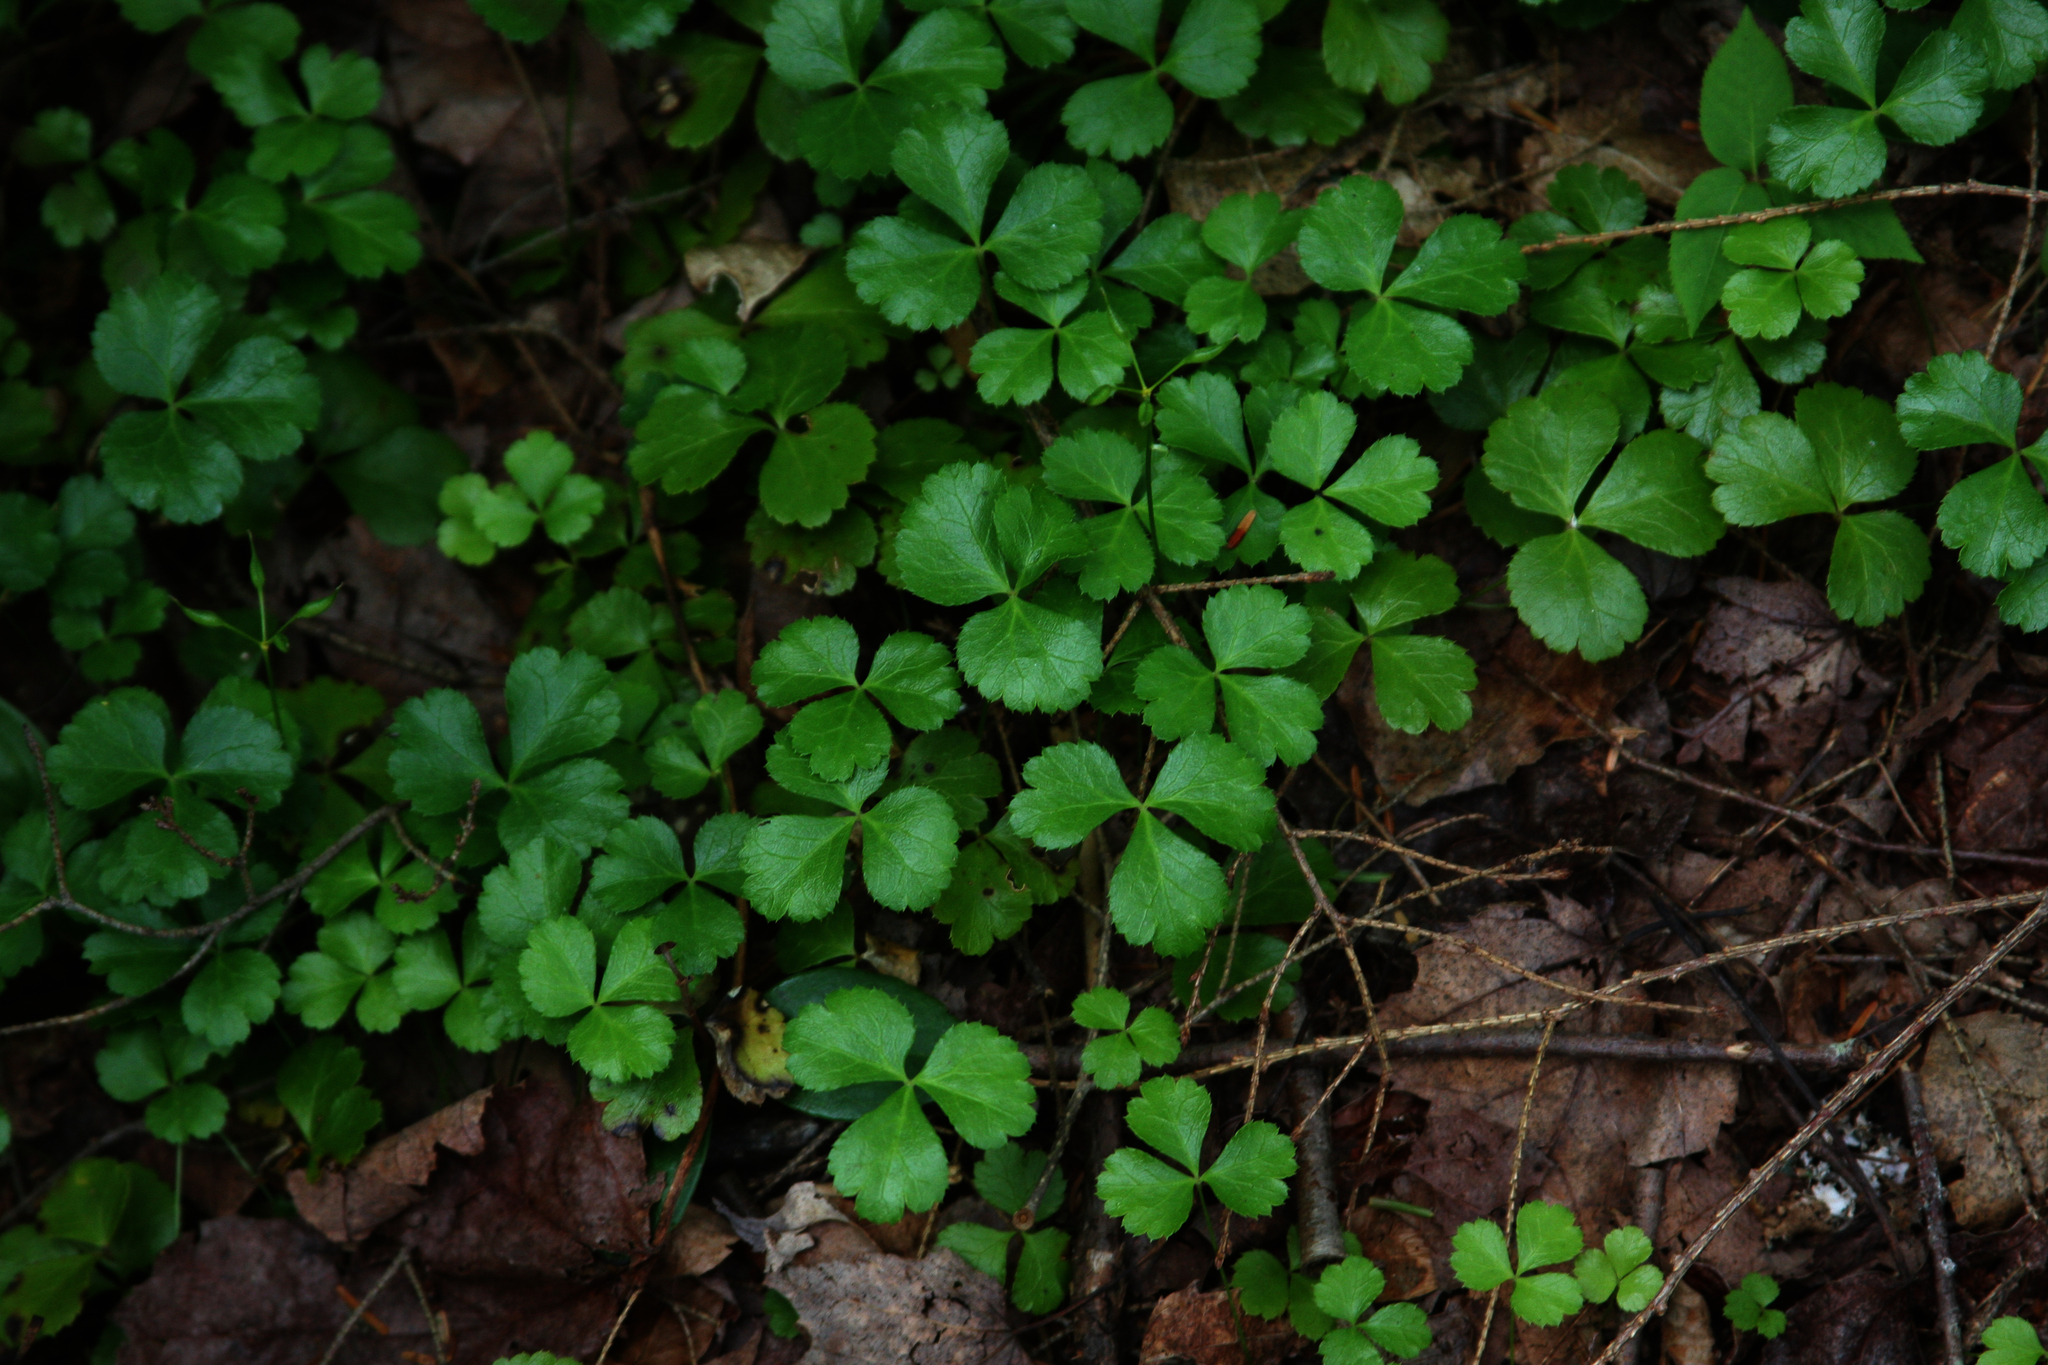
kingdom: Plantae
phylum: Tracheophyta
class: Magnoliopsida
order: Ranunculales
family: Ranunculaceae
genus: Coptis
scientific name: Coptis trifolia
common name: Canker-root
